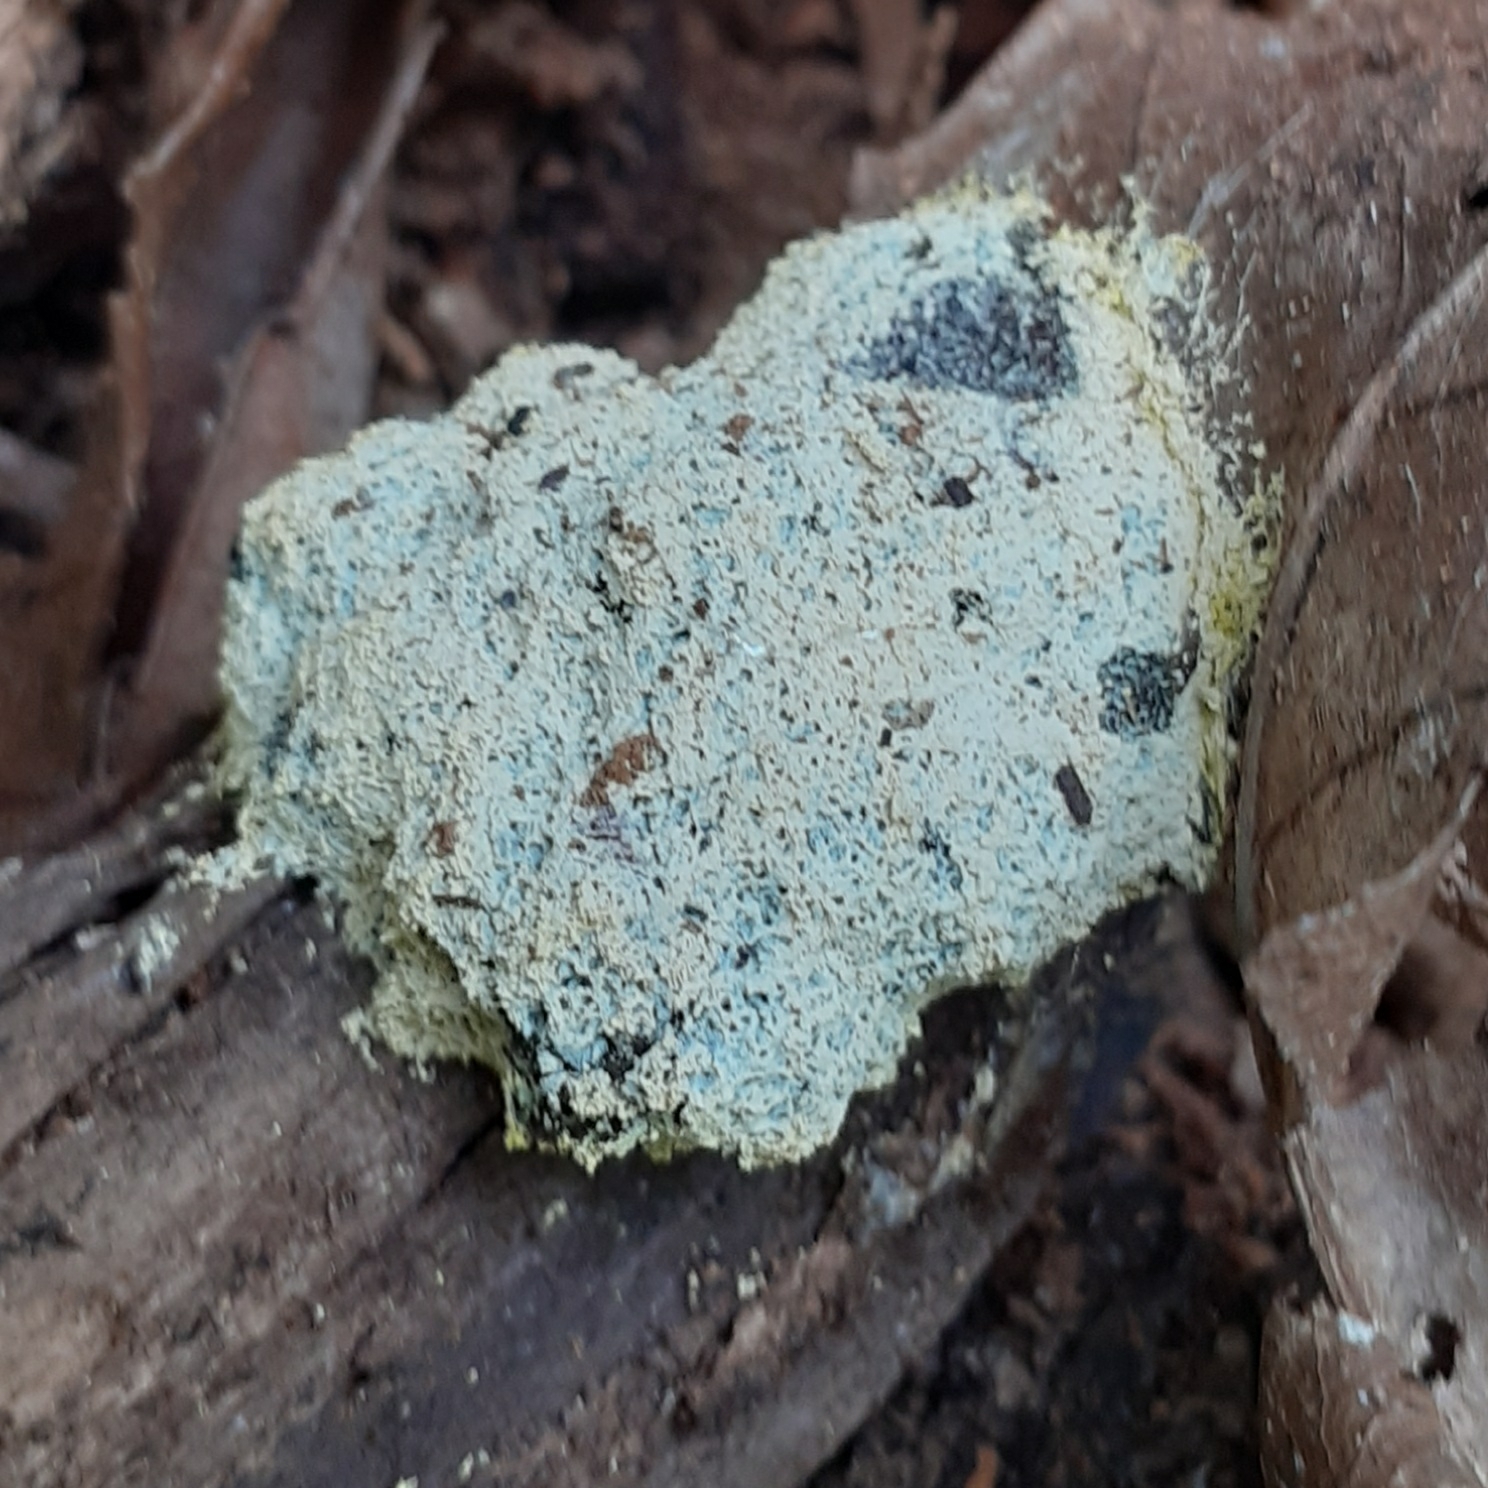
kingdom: Protozoa
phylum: Mycetozoa
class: Myxomycetes
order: Physarales
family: Physaraceae
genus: Fuligo
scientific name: Fuligo septica
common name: Dog vomit slime mold
